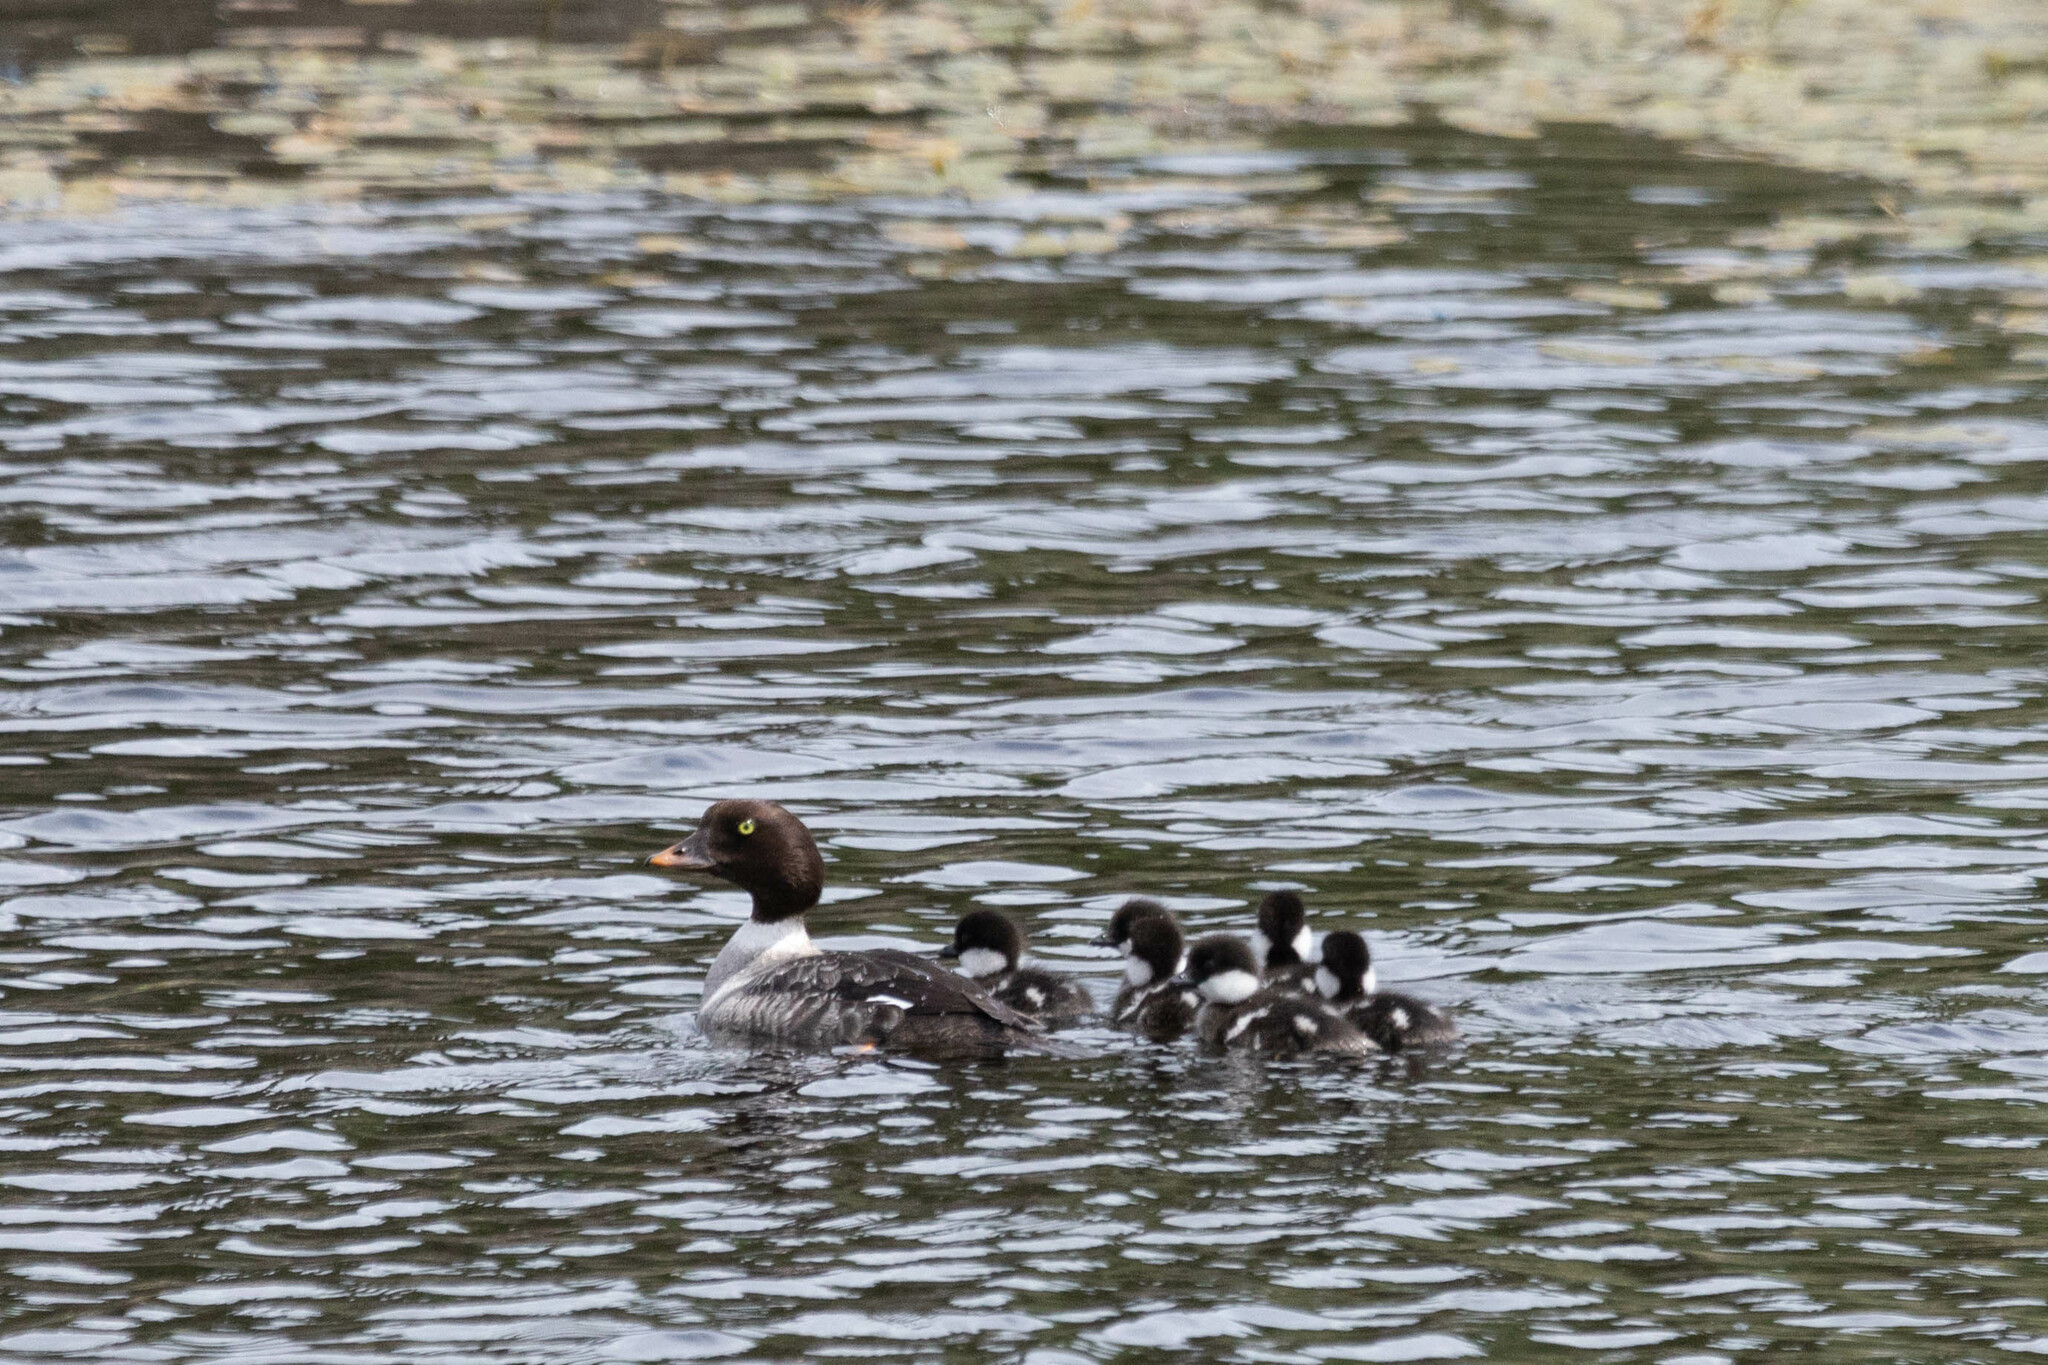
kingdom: Animalia
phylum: Chordata
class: Aves
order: Anseriformes
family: Anatidae
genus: Bucephala
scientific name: Bucephala islandica
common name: Barrow's goldeneye
